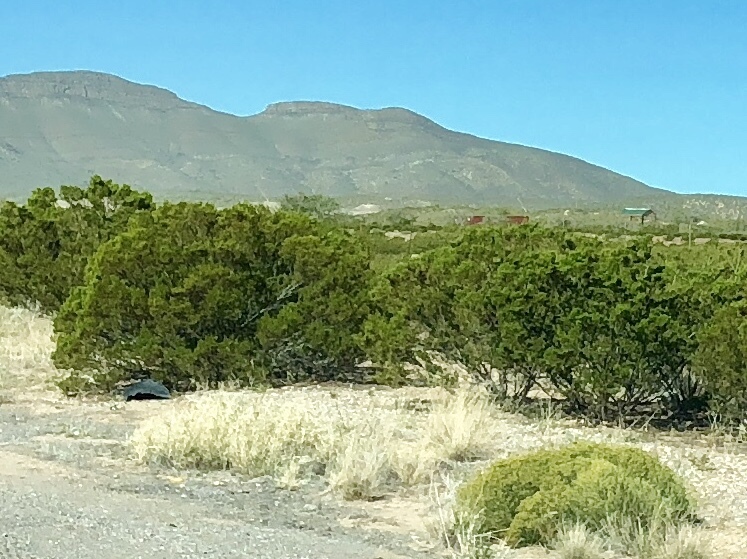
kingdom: Plantae
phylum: Tracheophyta
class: Magnoliopsida
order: Zygophyllales
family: Zygophyllaceae
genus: Larrea
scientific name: Larrea tridentata
